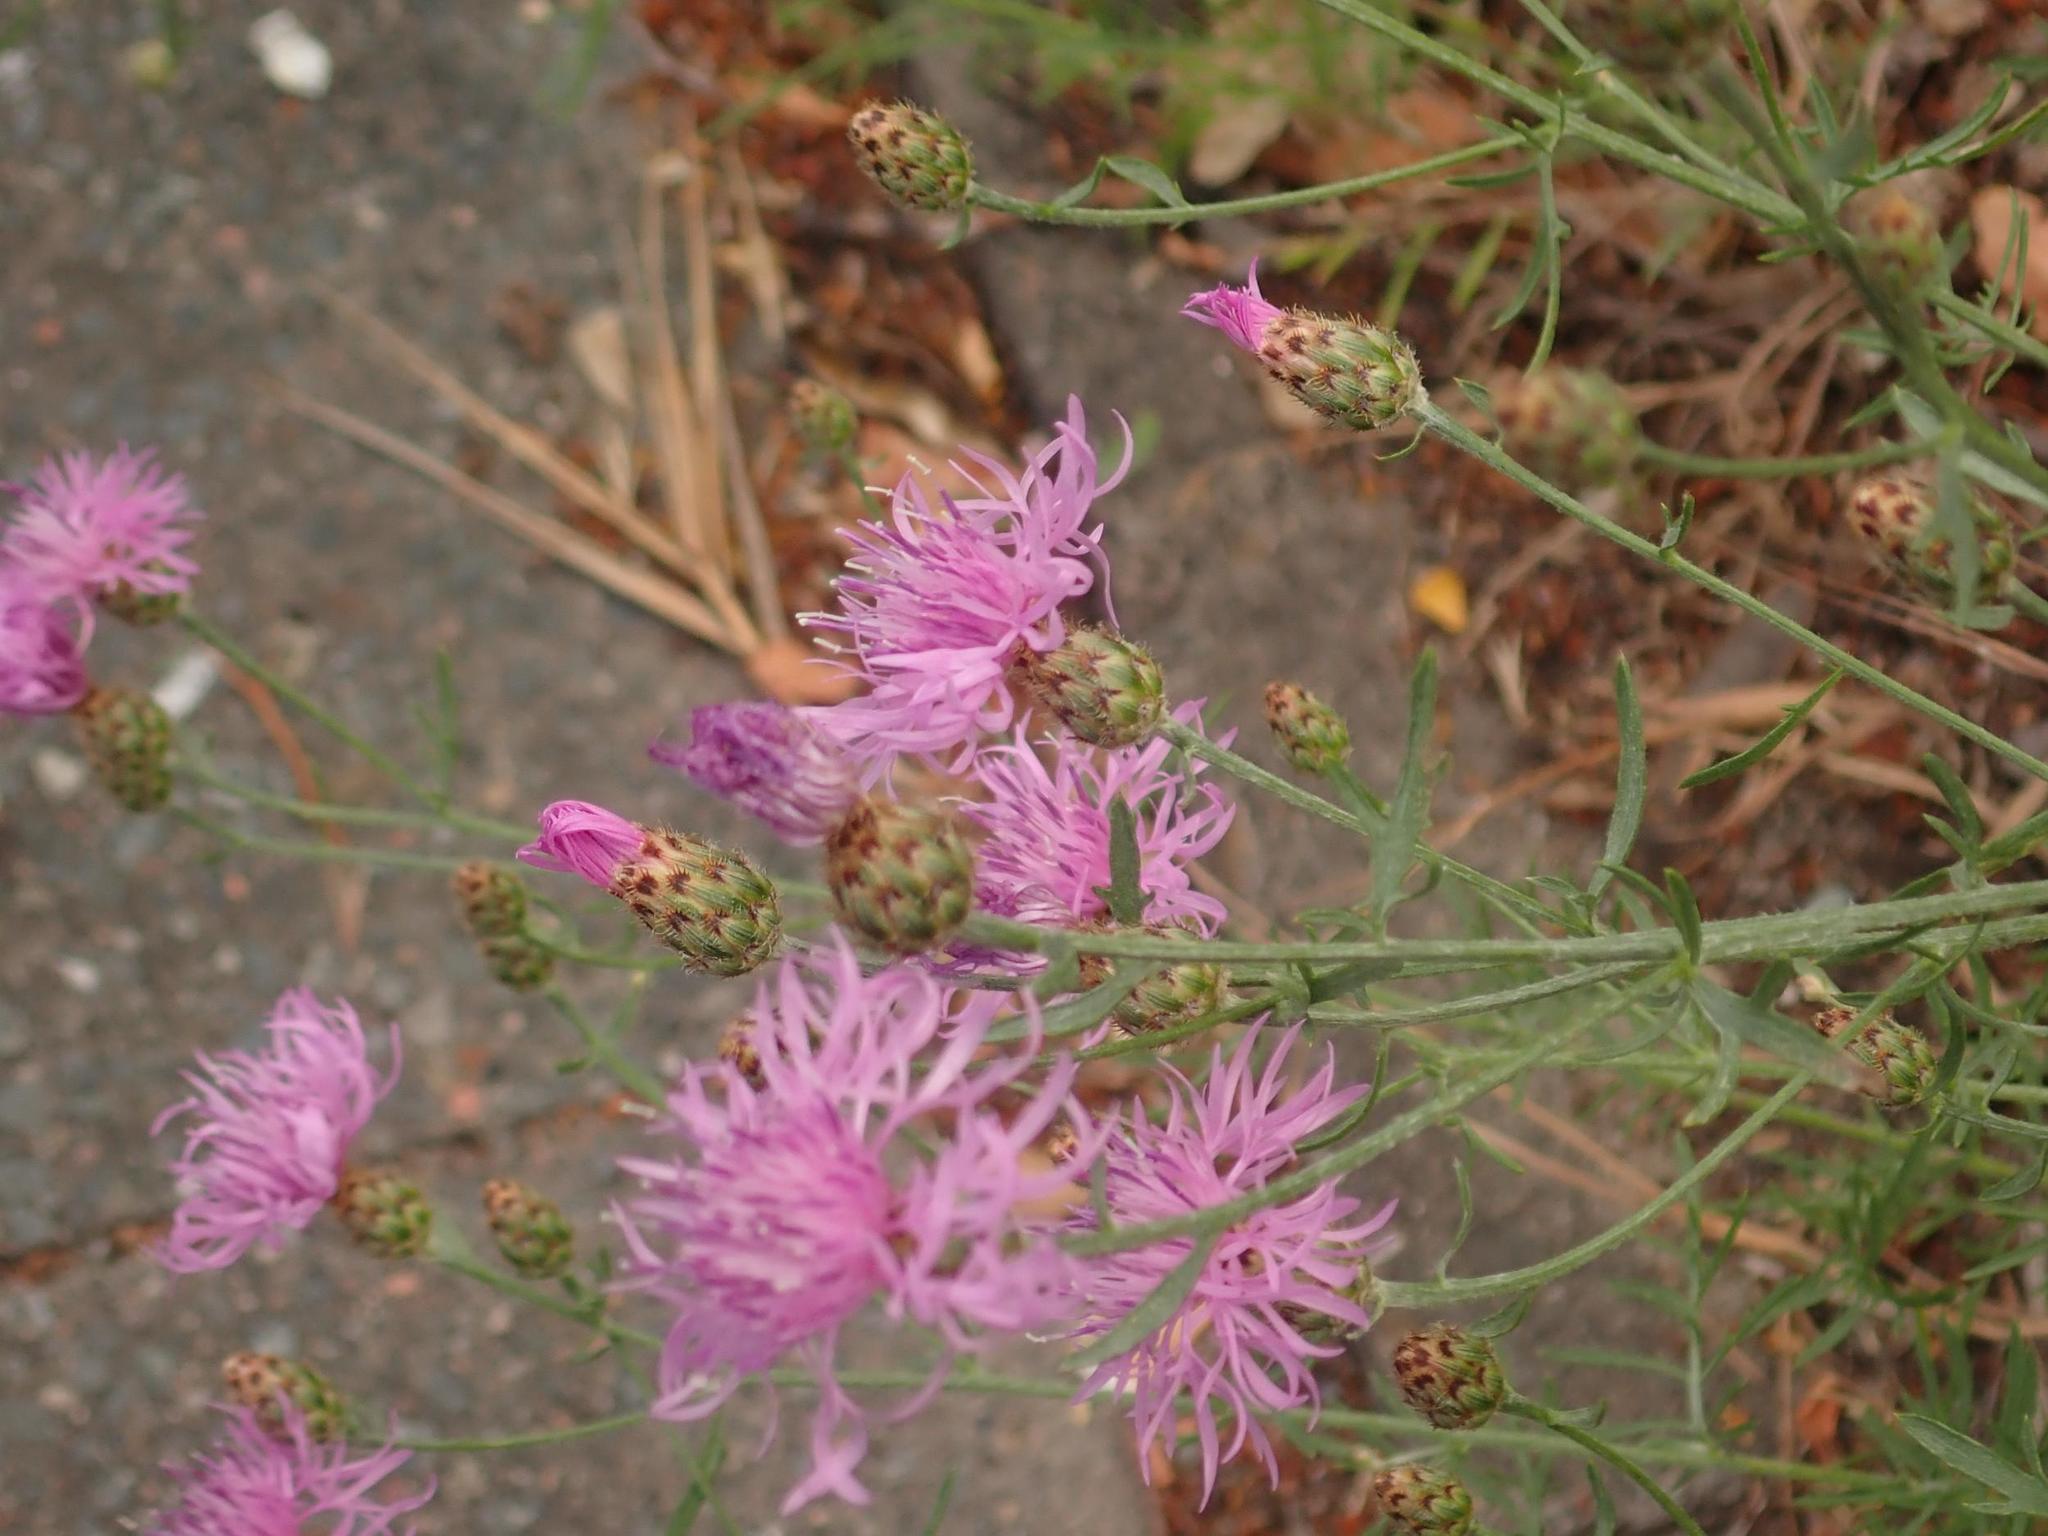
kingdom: Plantae
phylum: Tracheophyta
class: Magnoliopsida
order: Asterales
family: Asteraceae
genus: Centaurea
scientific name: Centaurea stoebe
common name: Spotted knapweed
